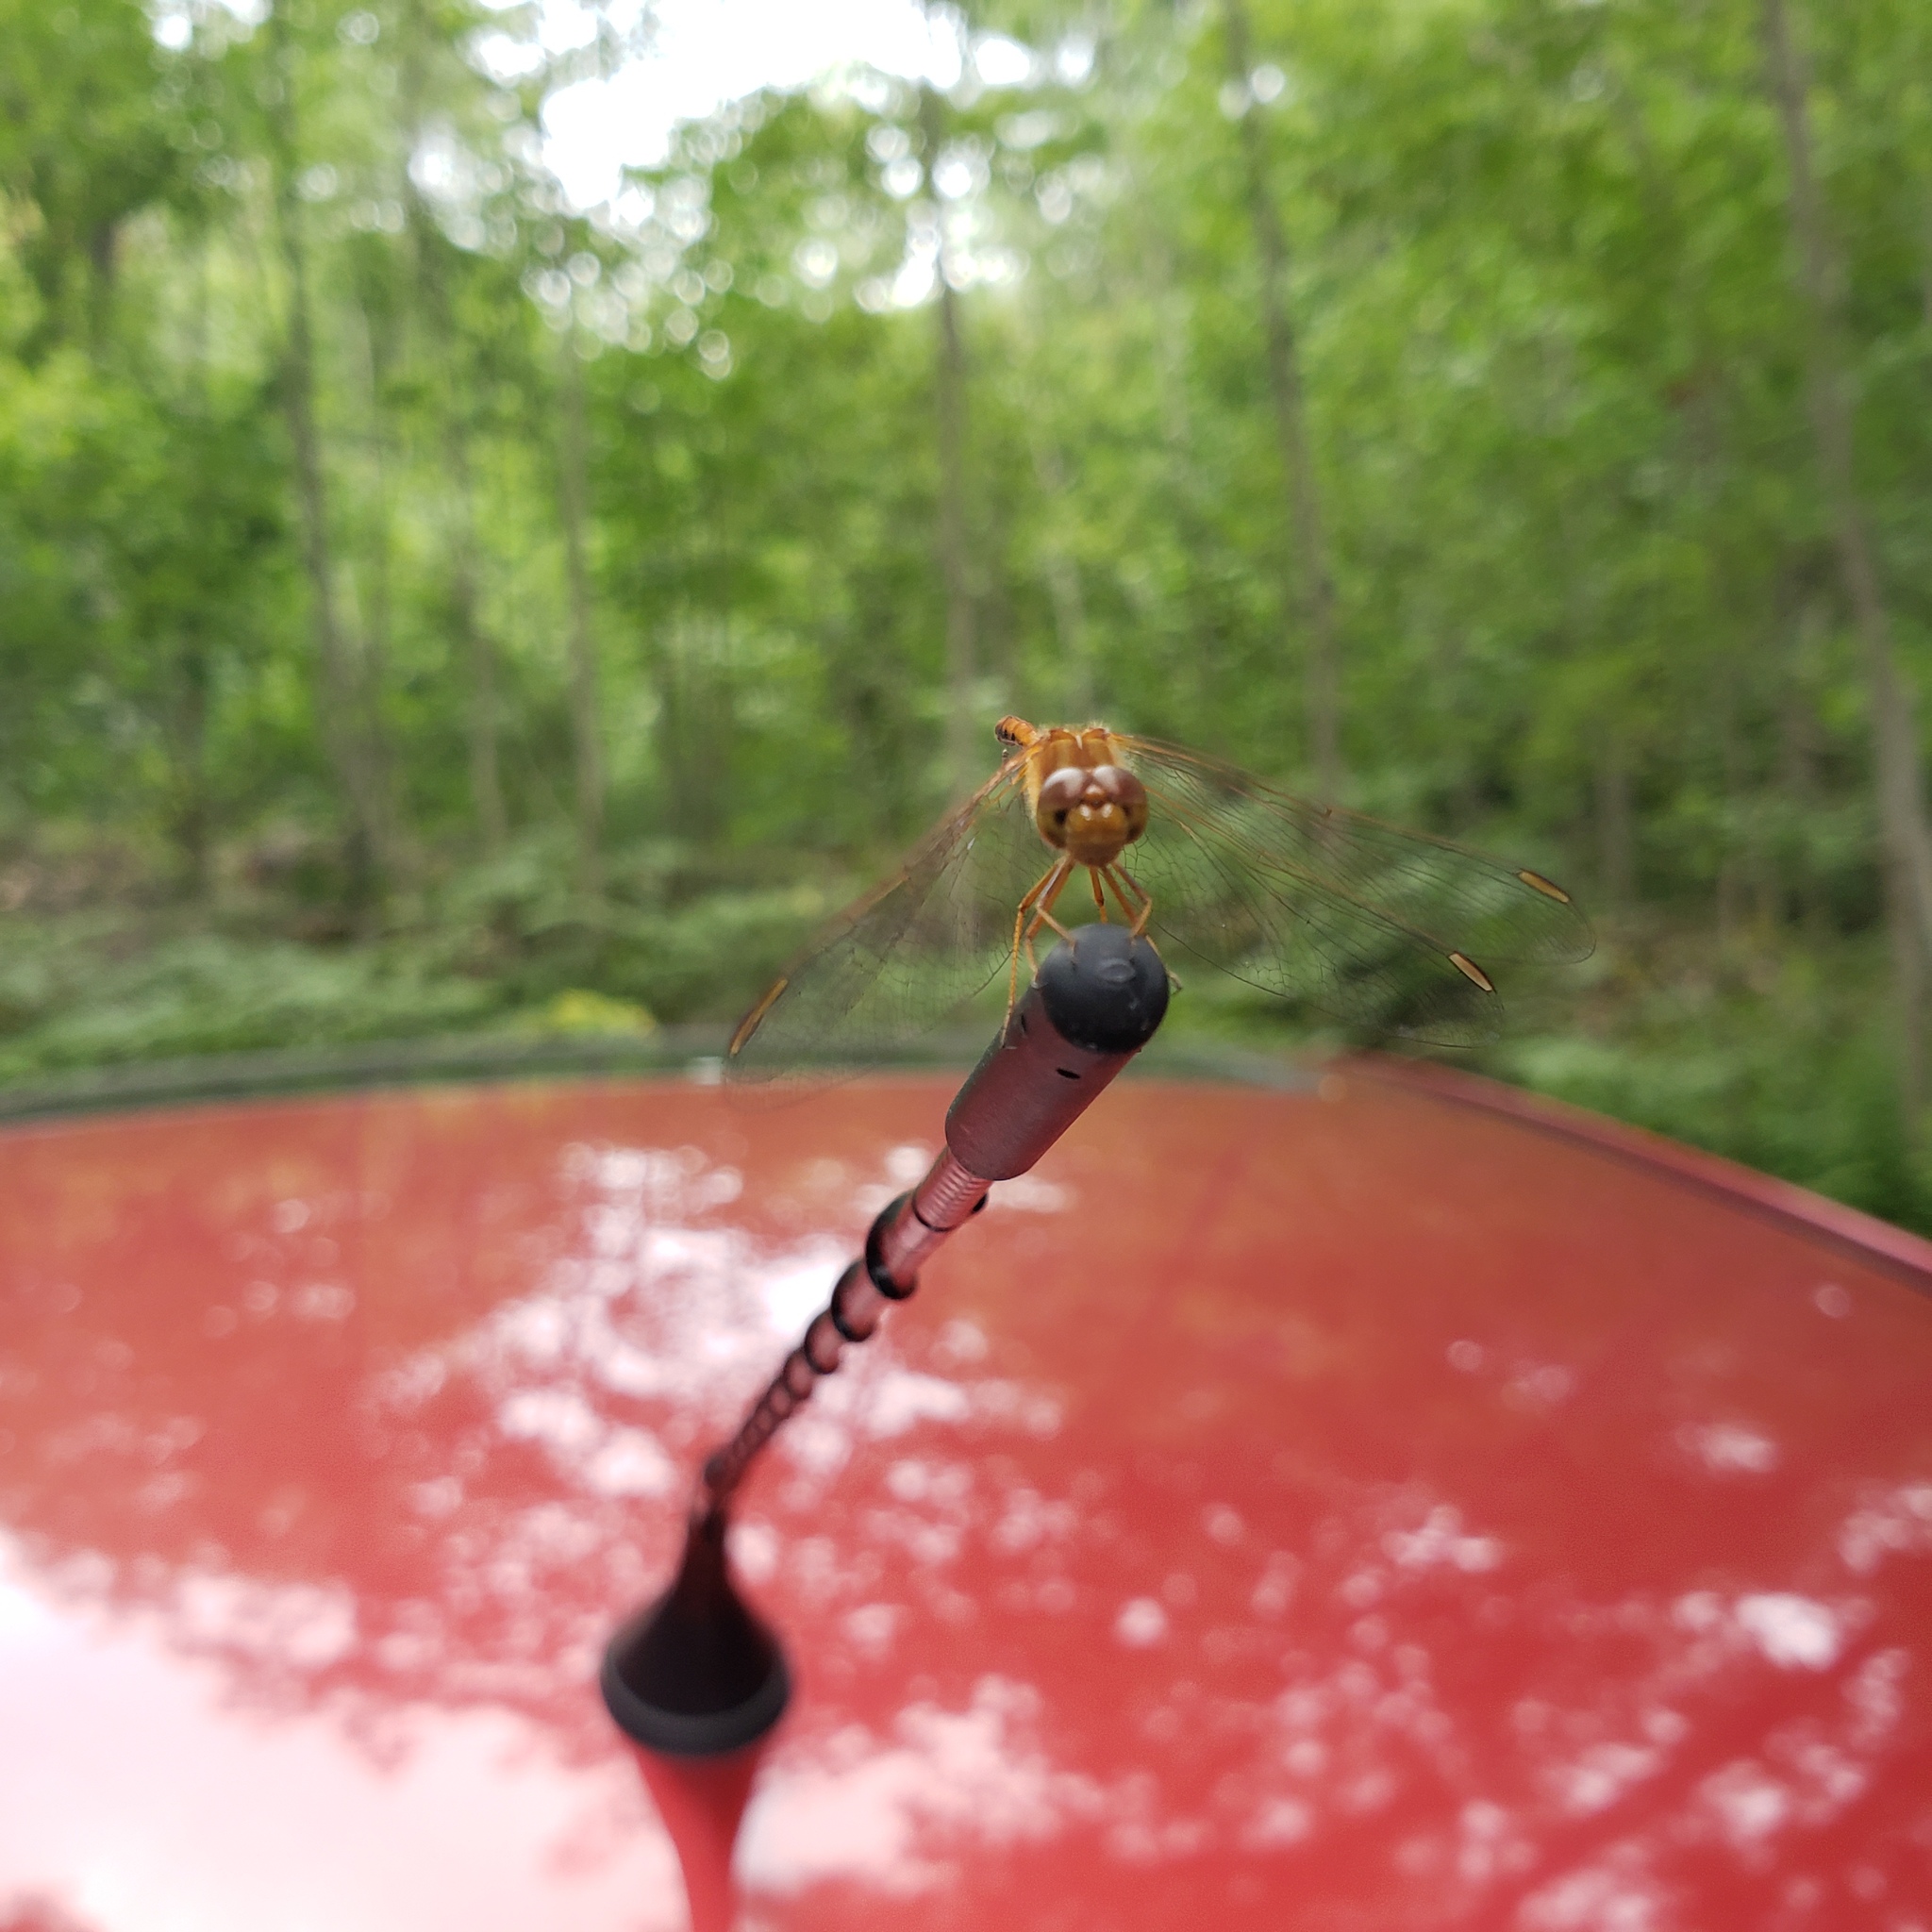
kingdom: Animalia
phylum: Arthropoda
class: Insecta
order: Odonata
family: Libellulidae
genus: Sympetrum
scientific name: Sympetrum vicinum
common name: Autumn meadowhawk
